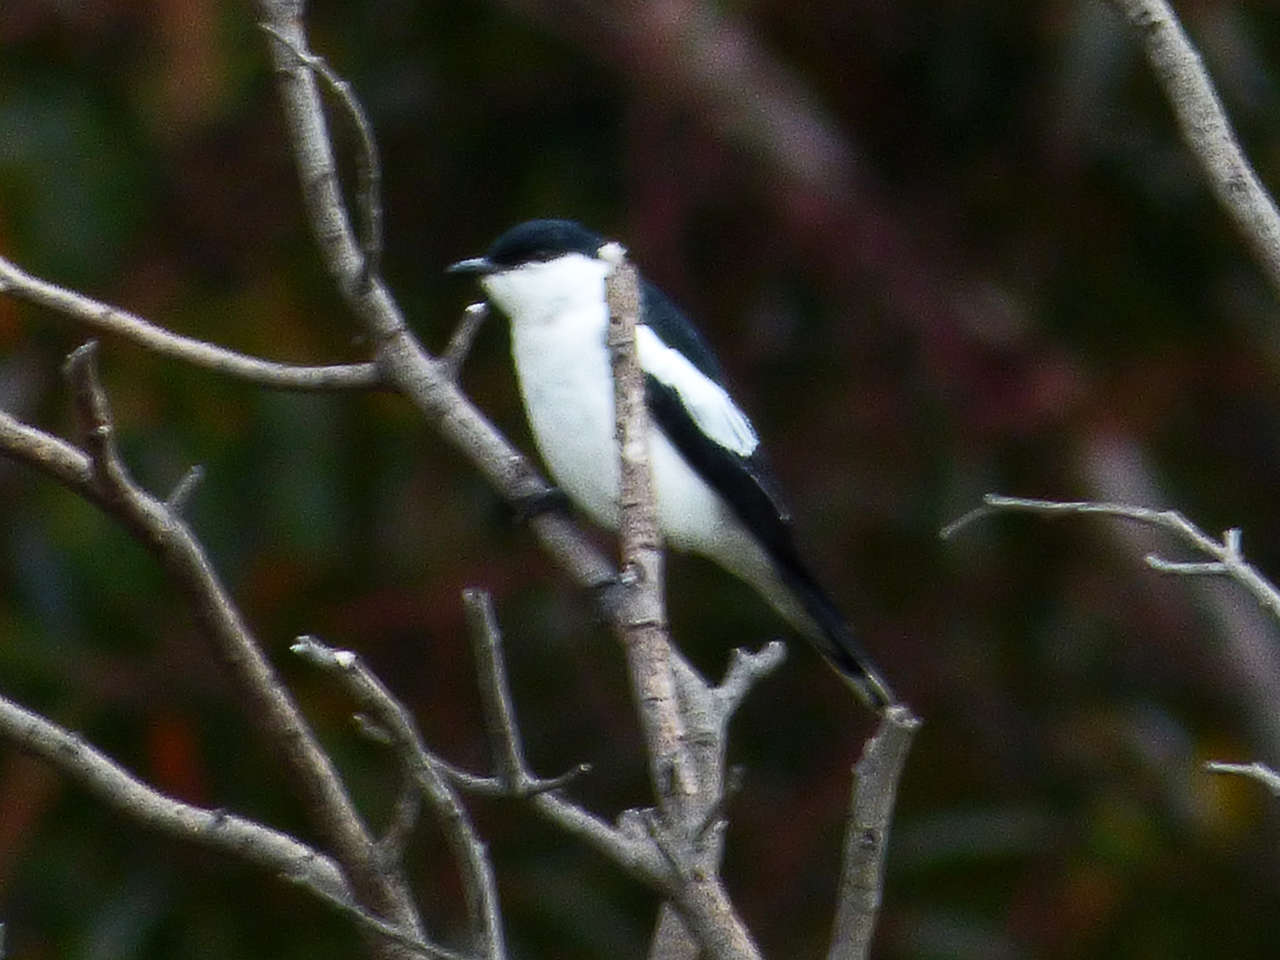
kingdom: Animalia
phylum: Chordata
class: Aves
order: Passeriformes
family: Campephagidae
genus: Lalage
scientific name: Lalage tricolor
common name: White-winged triller
